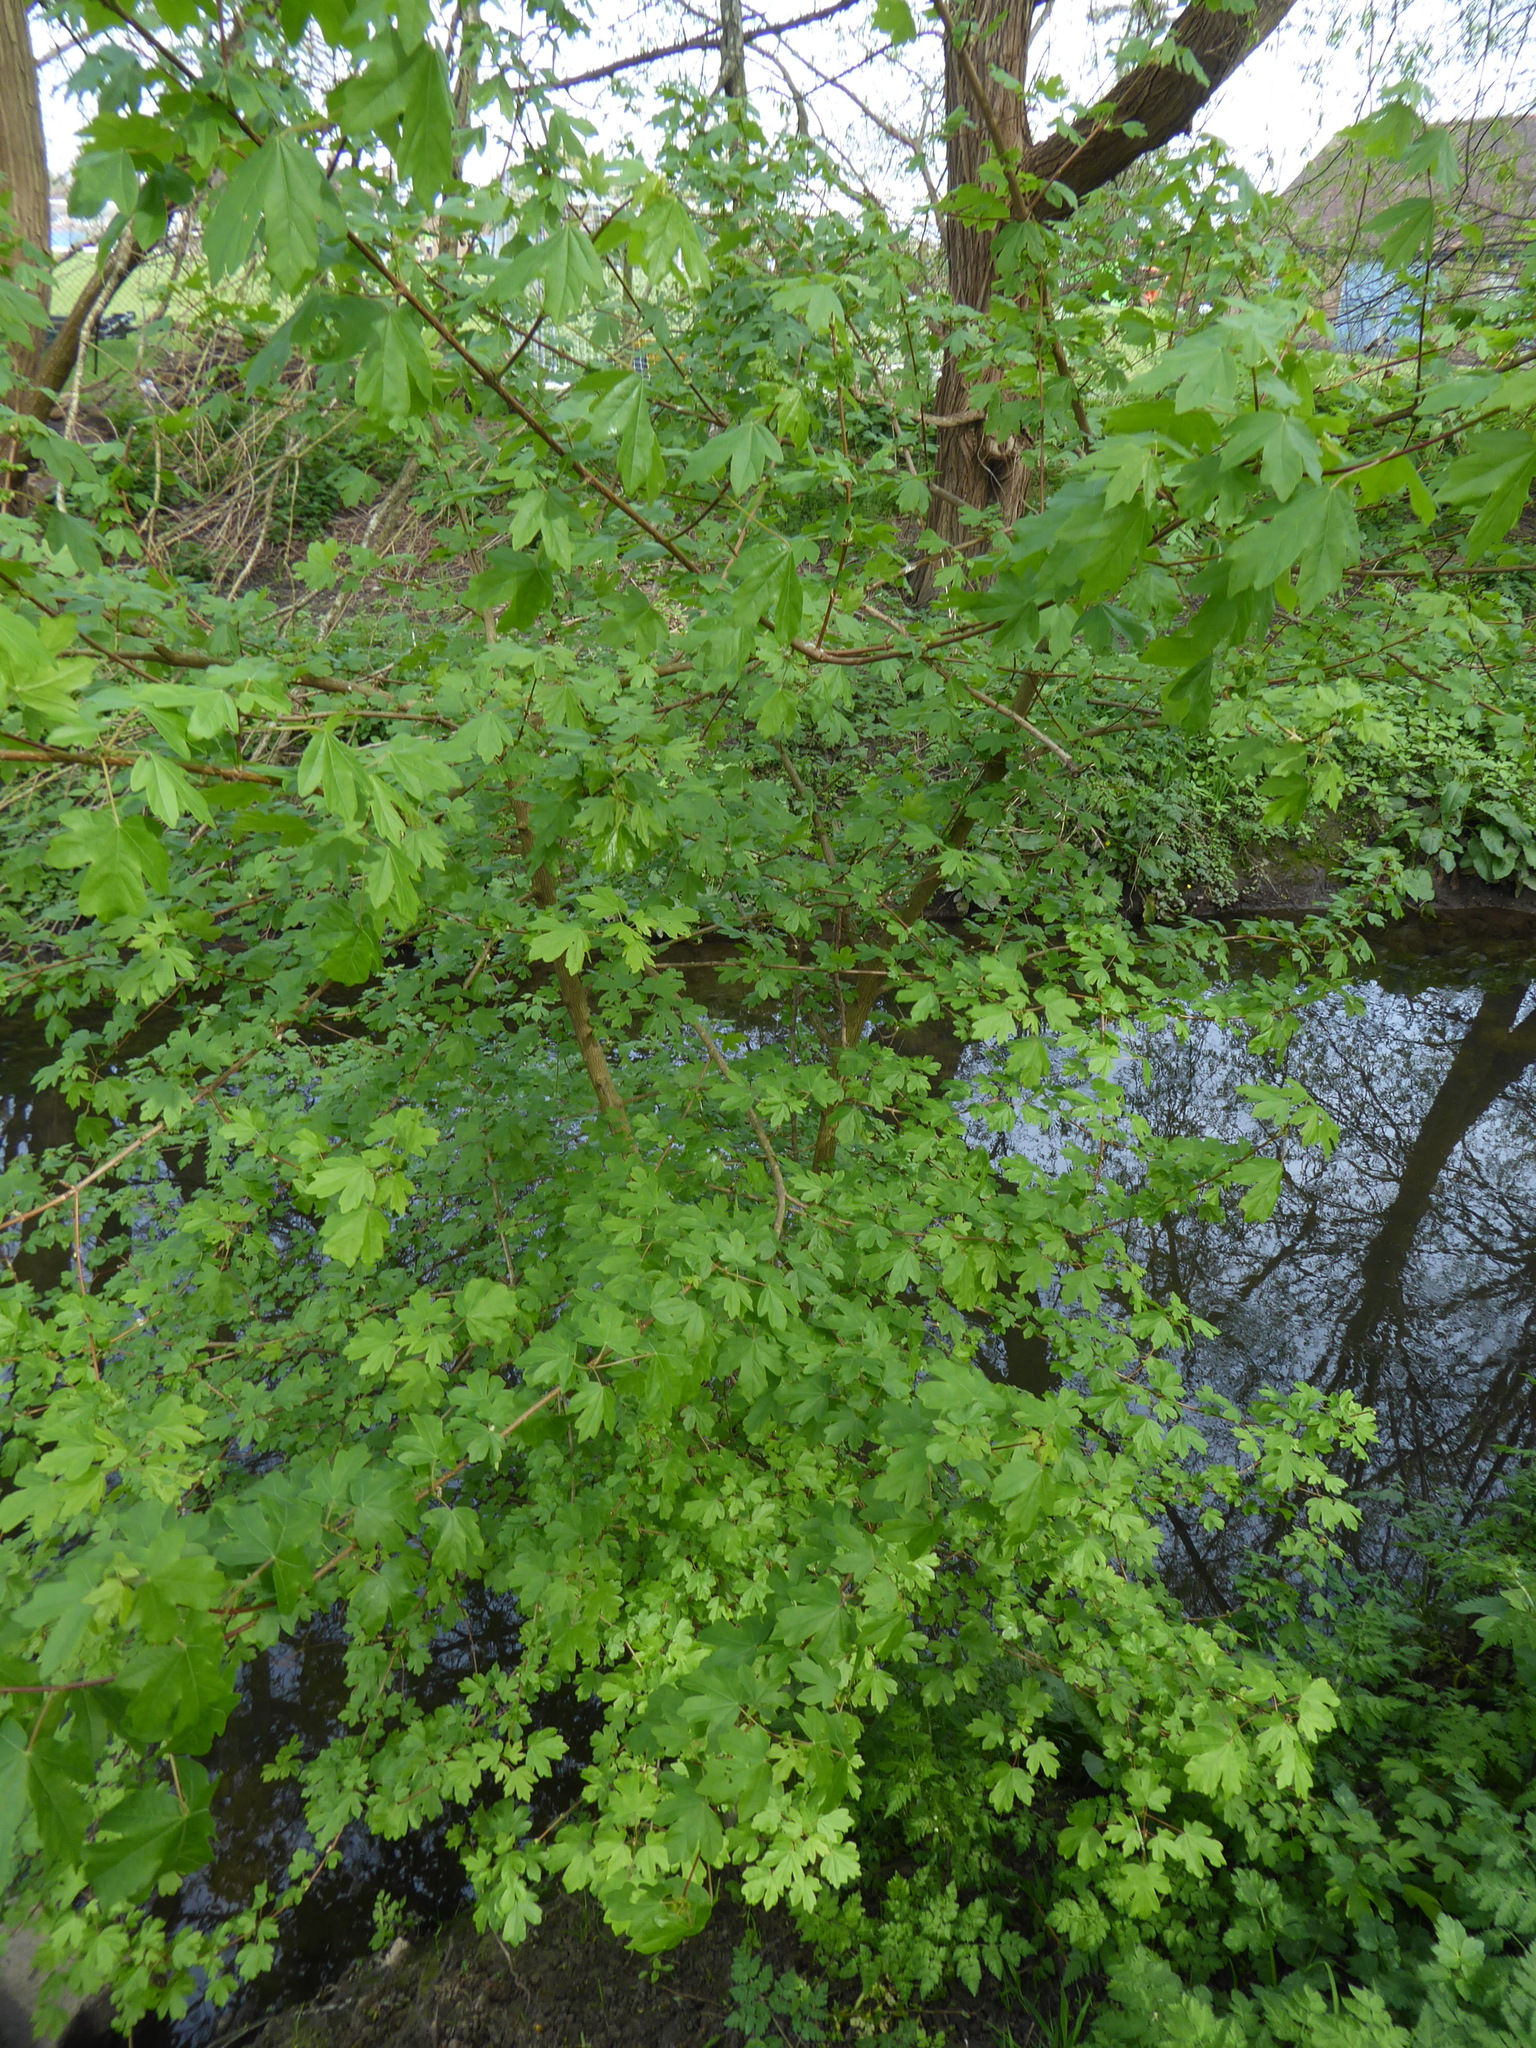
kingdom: Plantae
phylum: Tracheophyta
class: Magnoliopsida
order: Sapindales
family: Sapindaceae
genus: Acer
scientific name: Acer campestre
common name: Field maple
